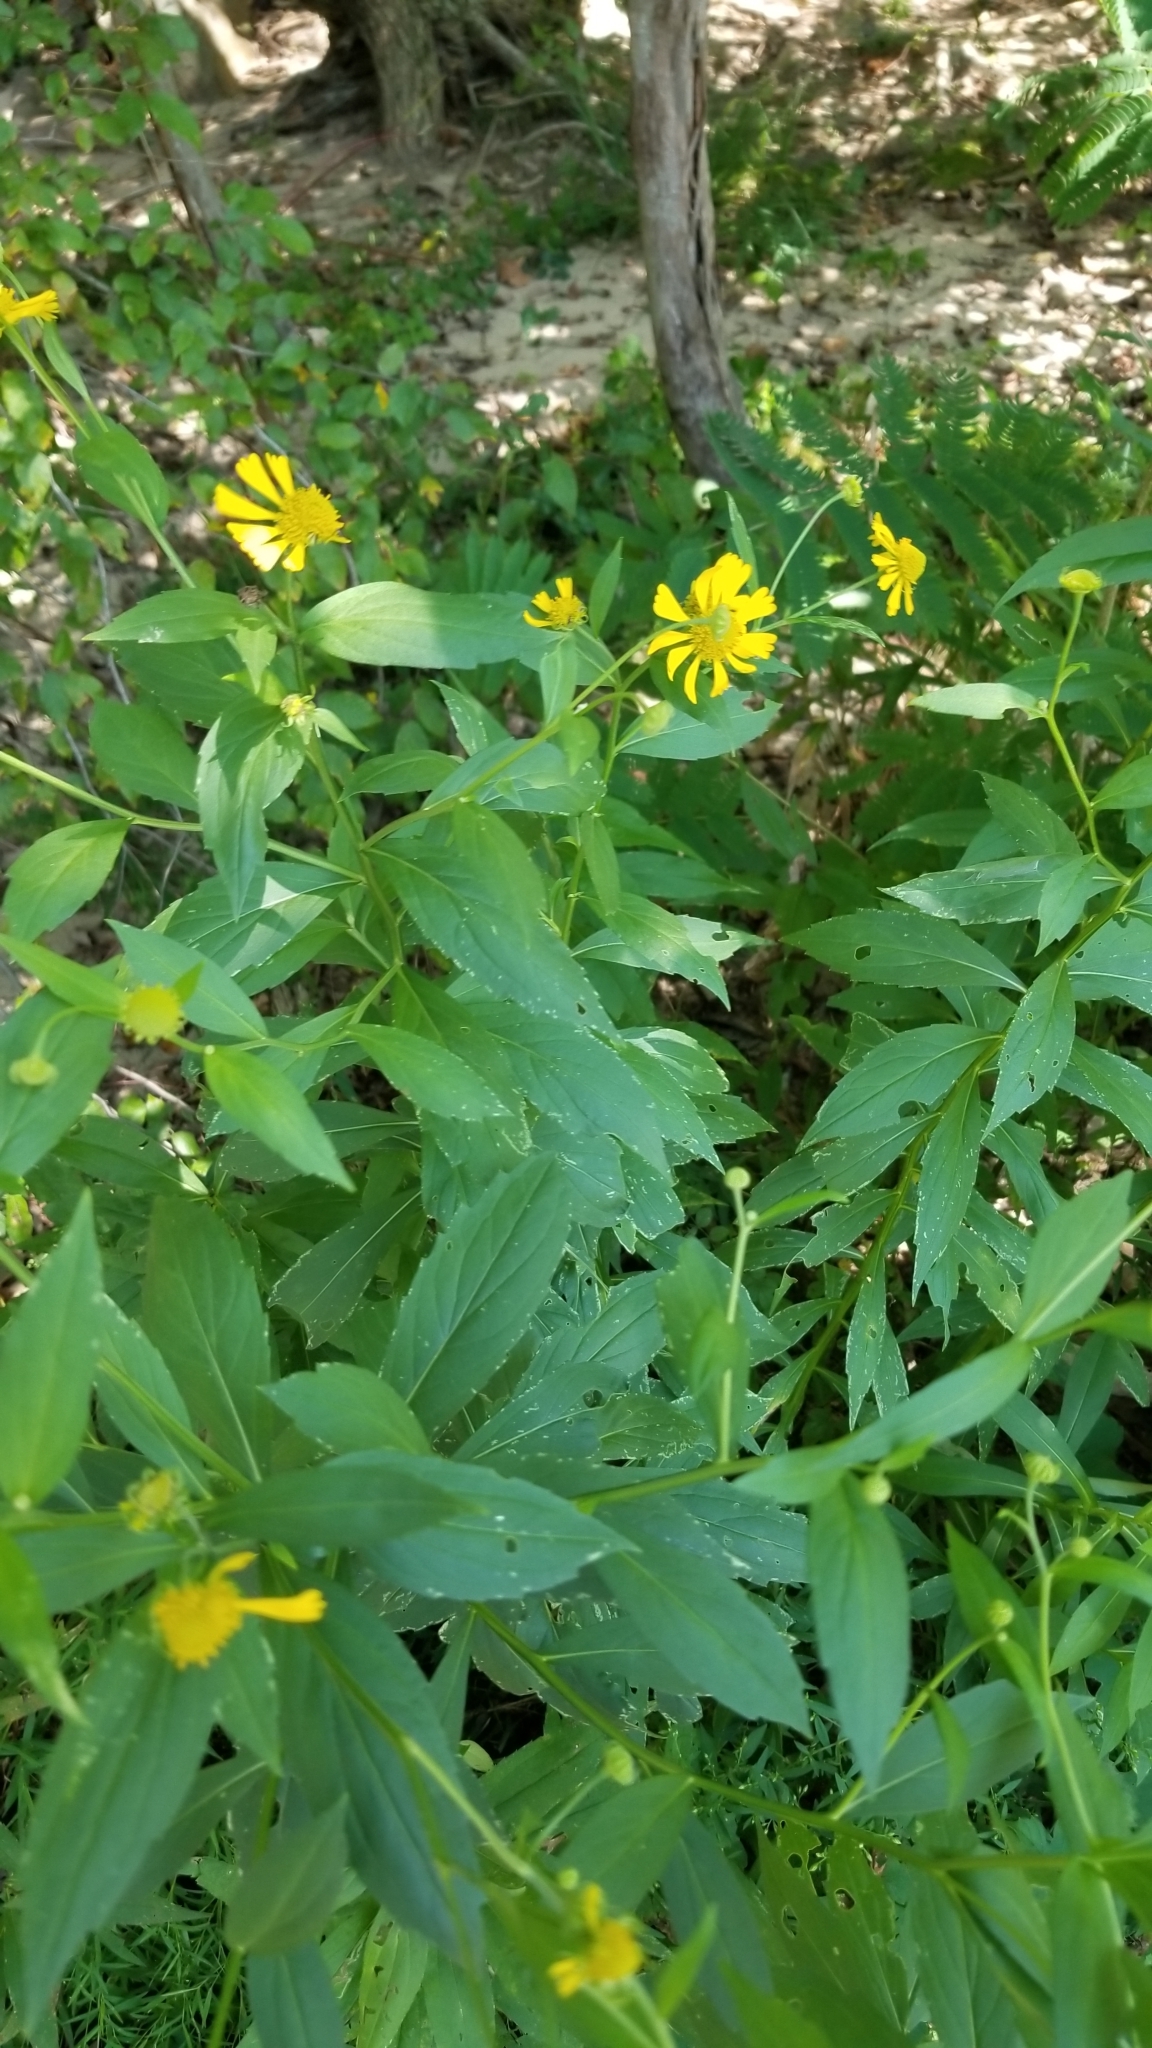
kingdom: Plantae
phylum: Tracheophyta
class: Magnoliopsida
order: Asterales
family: Asteraceae
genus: Helenium
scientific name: Helenium autumnale
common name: Sneezeweed
